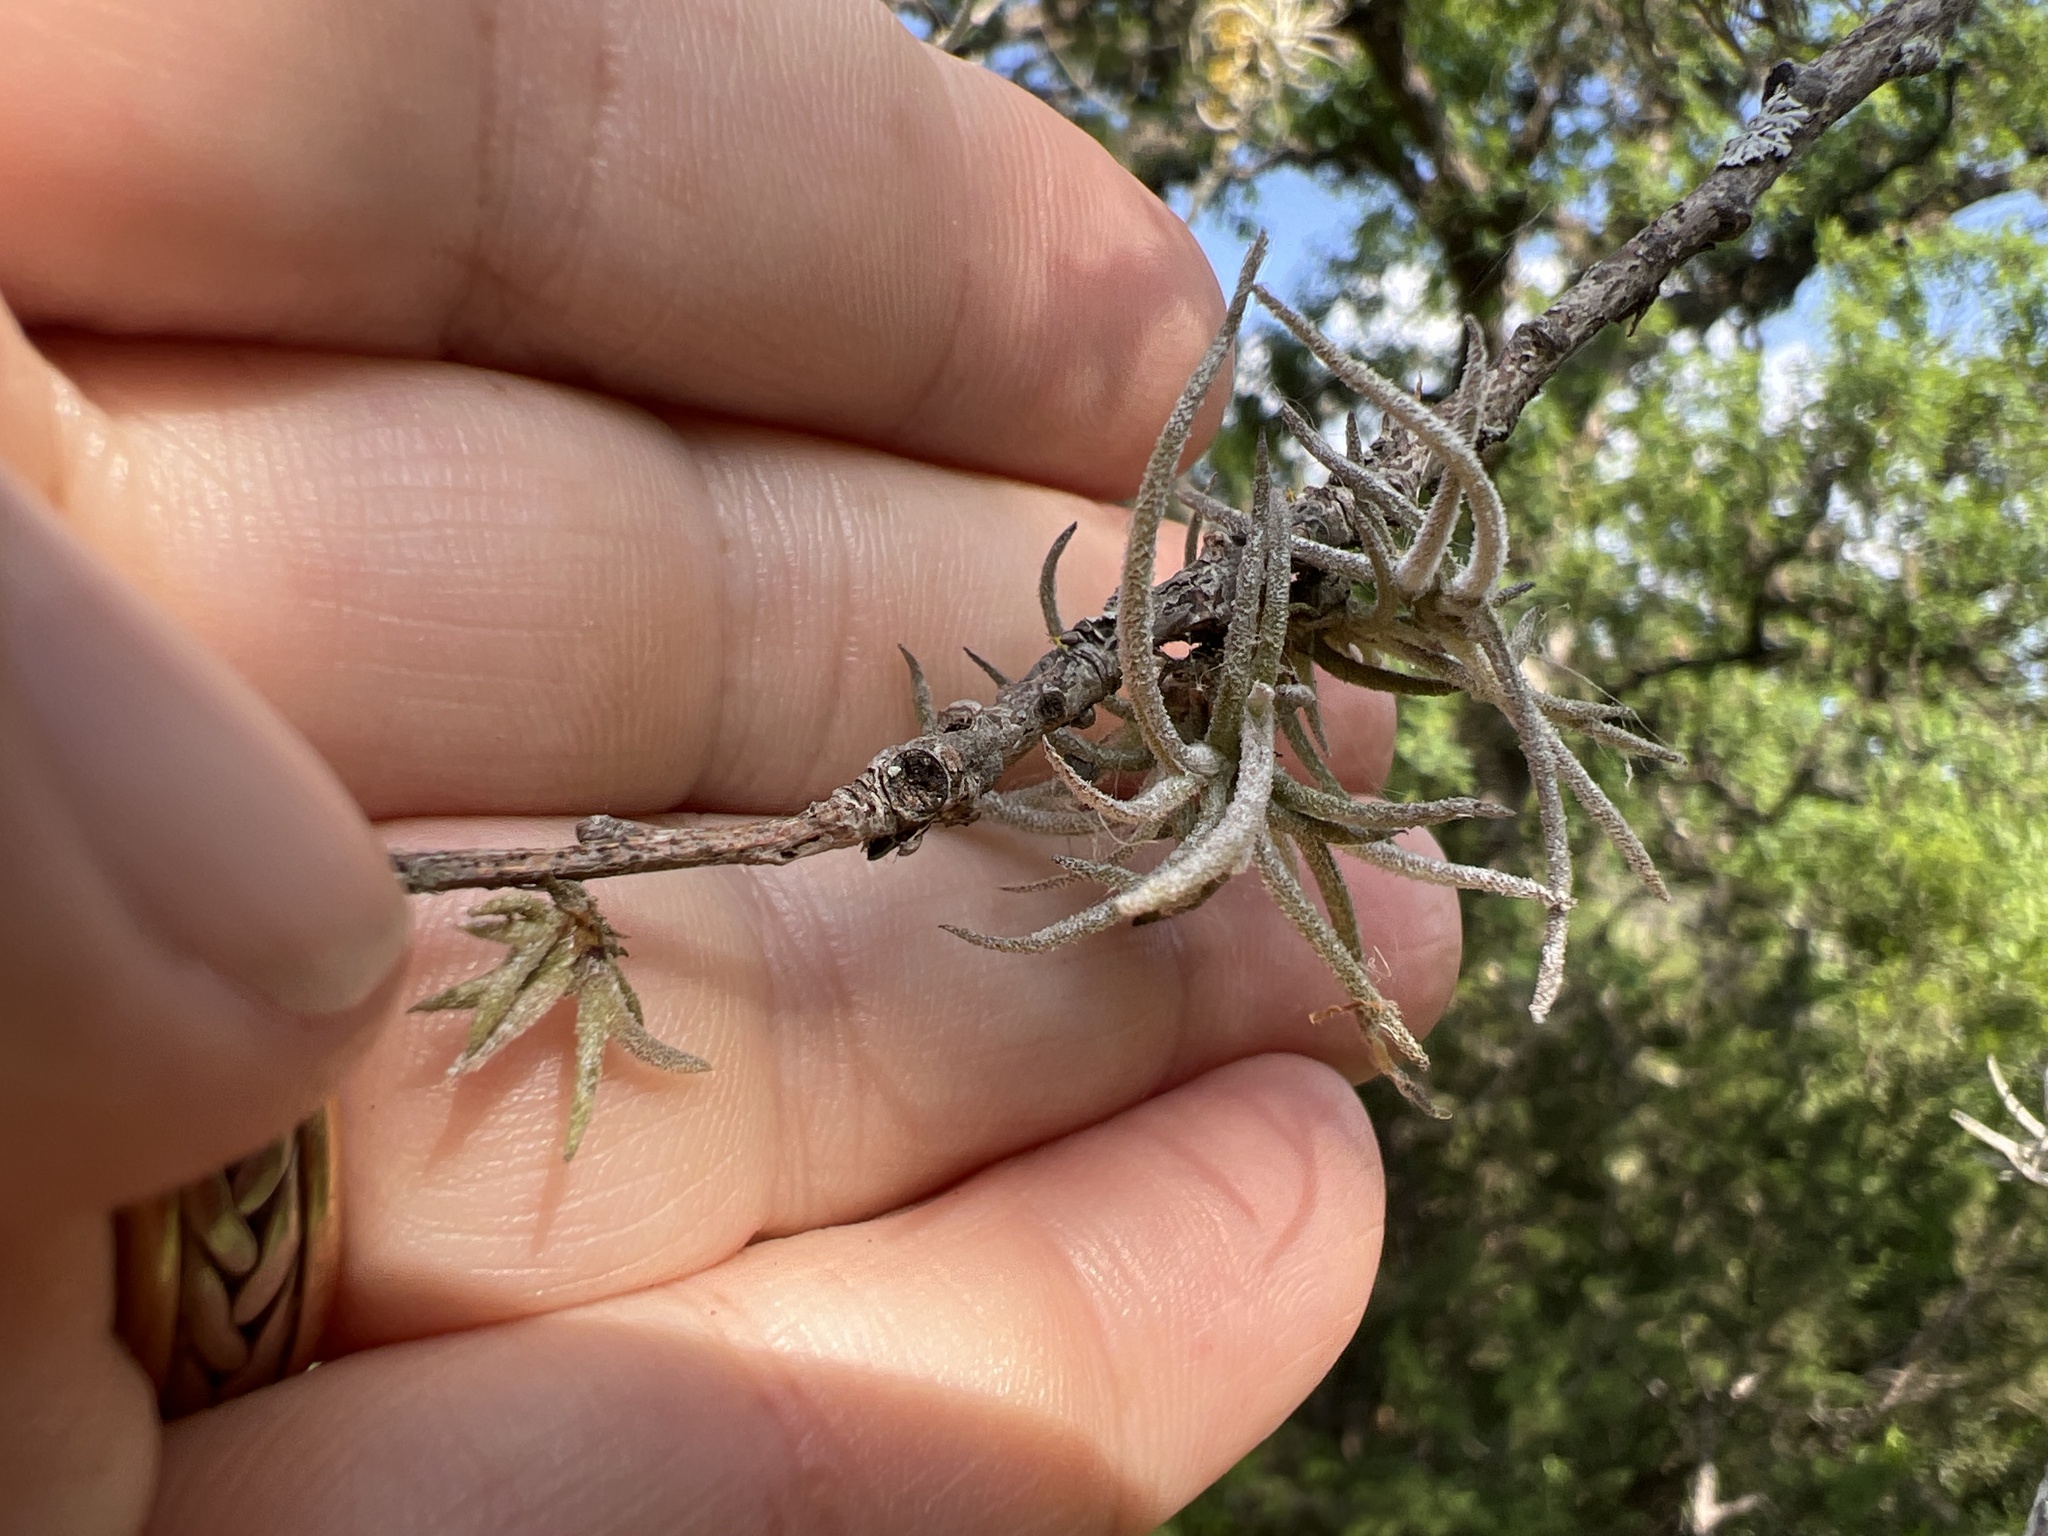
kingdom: Plantae
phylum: Tracheophyta
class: Liliopsida
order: Poales
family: Bromeliaceae
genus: Tillandsia
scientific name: Tillandsia recurvata
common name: Small ballmoss
